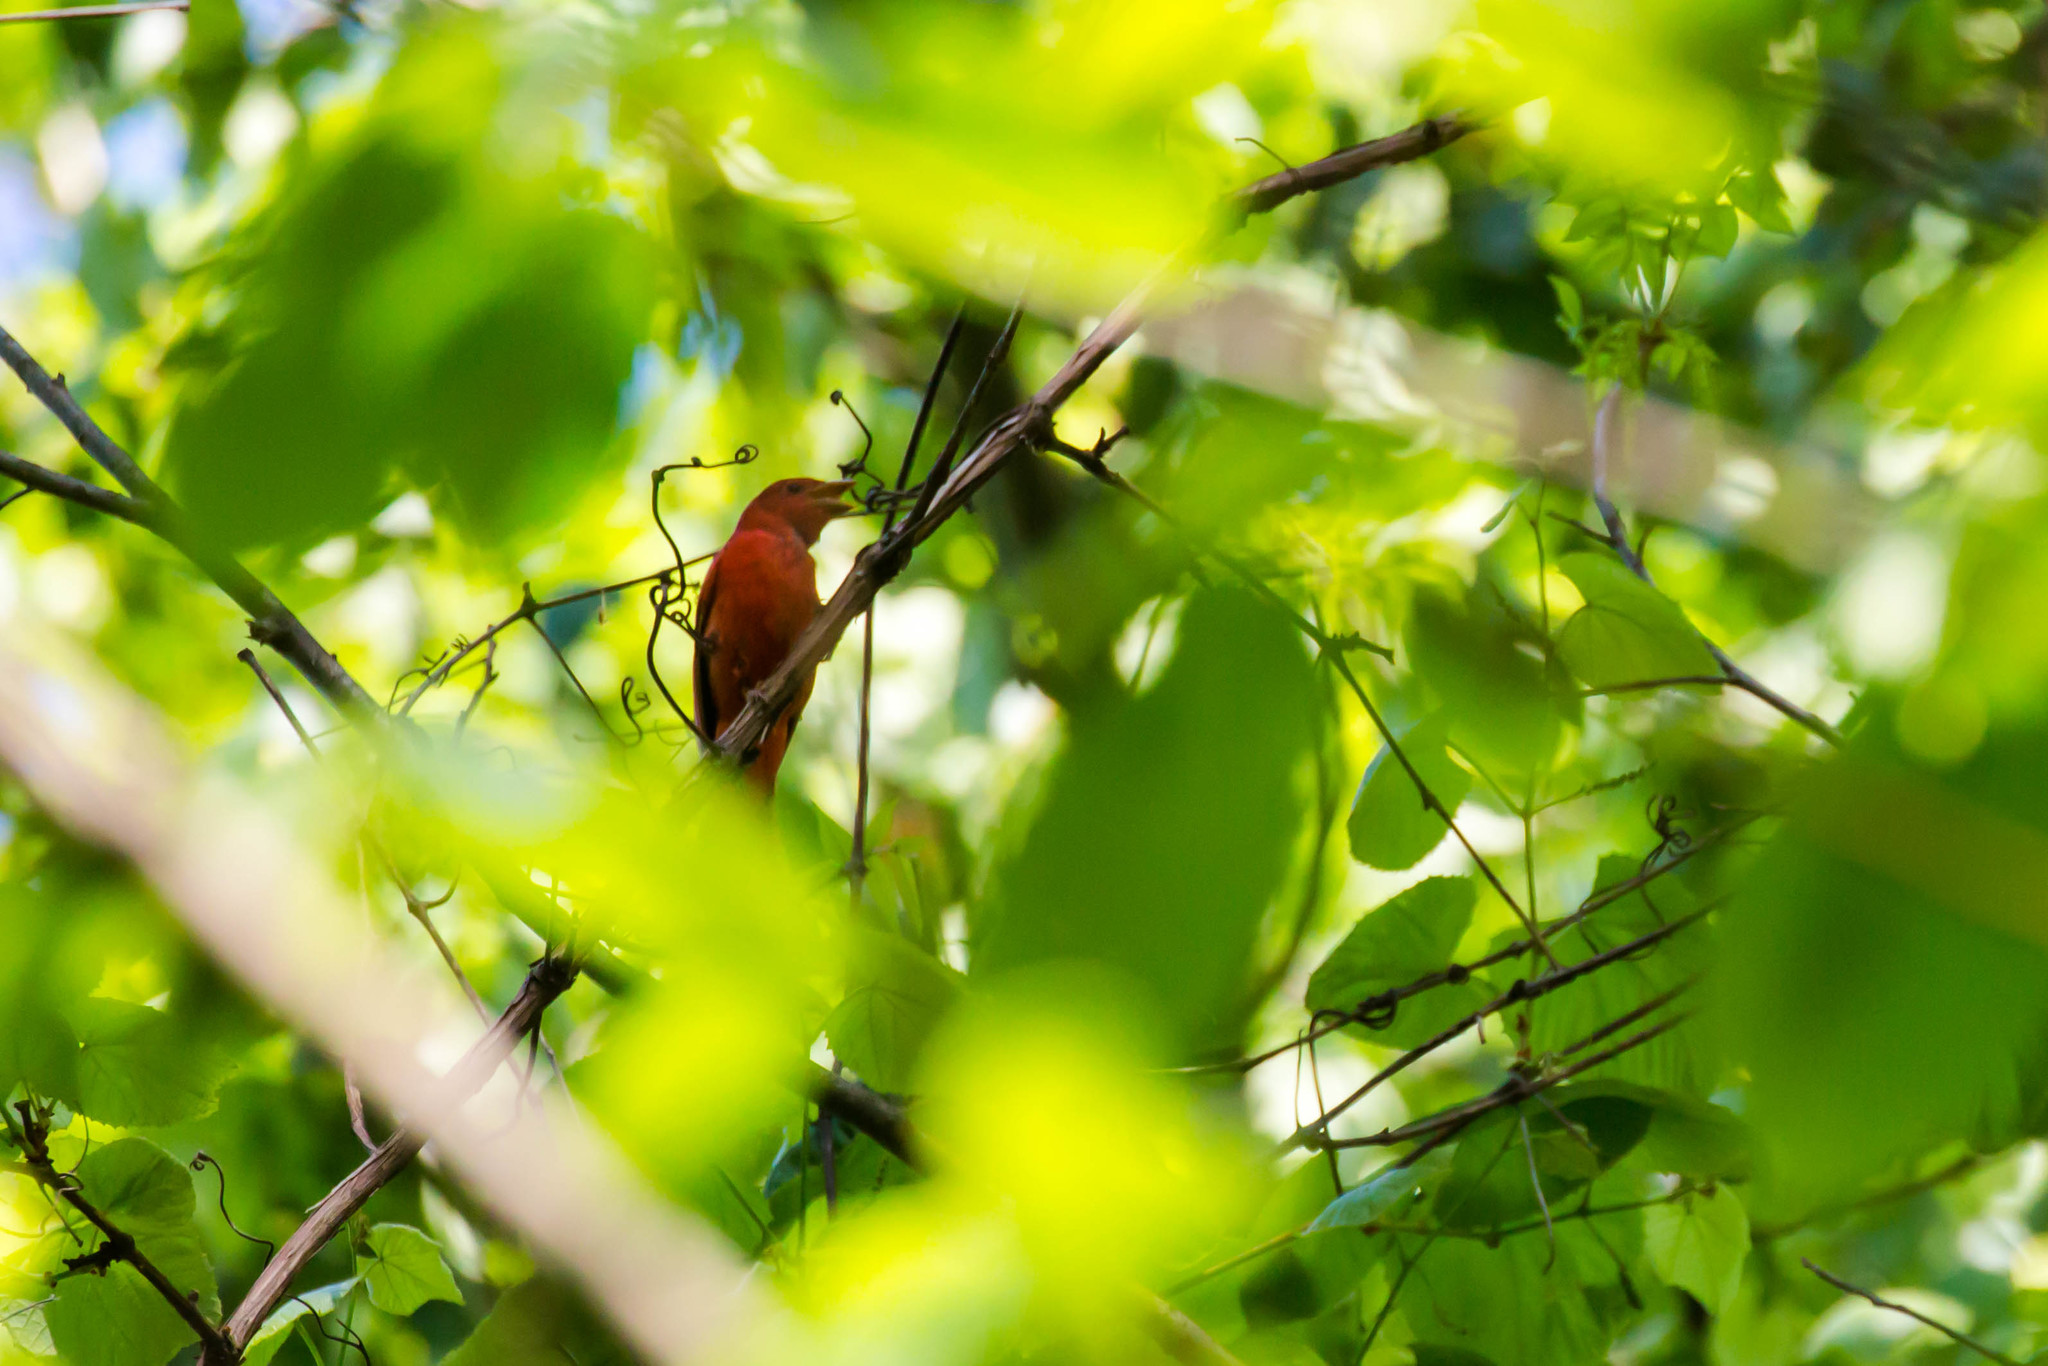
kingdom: Animalia
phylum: Chordata
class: Aves
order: Passeriformes
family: Cardinalidae
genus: Piranga
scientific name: Piranga rubra
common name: Summer tanager
